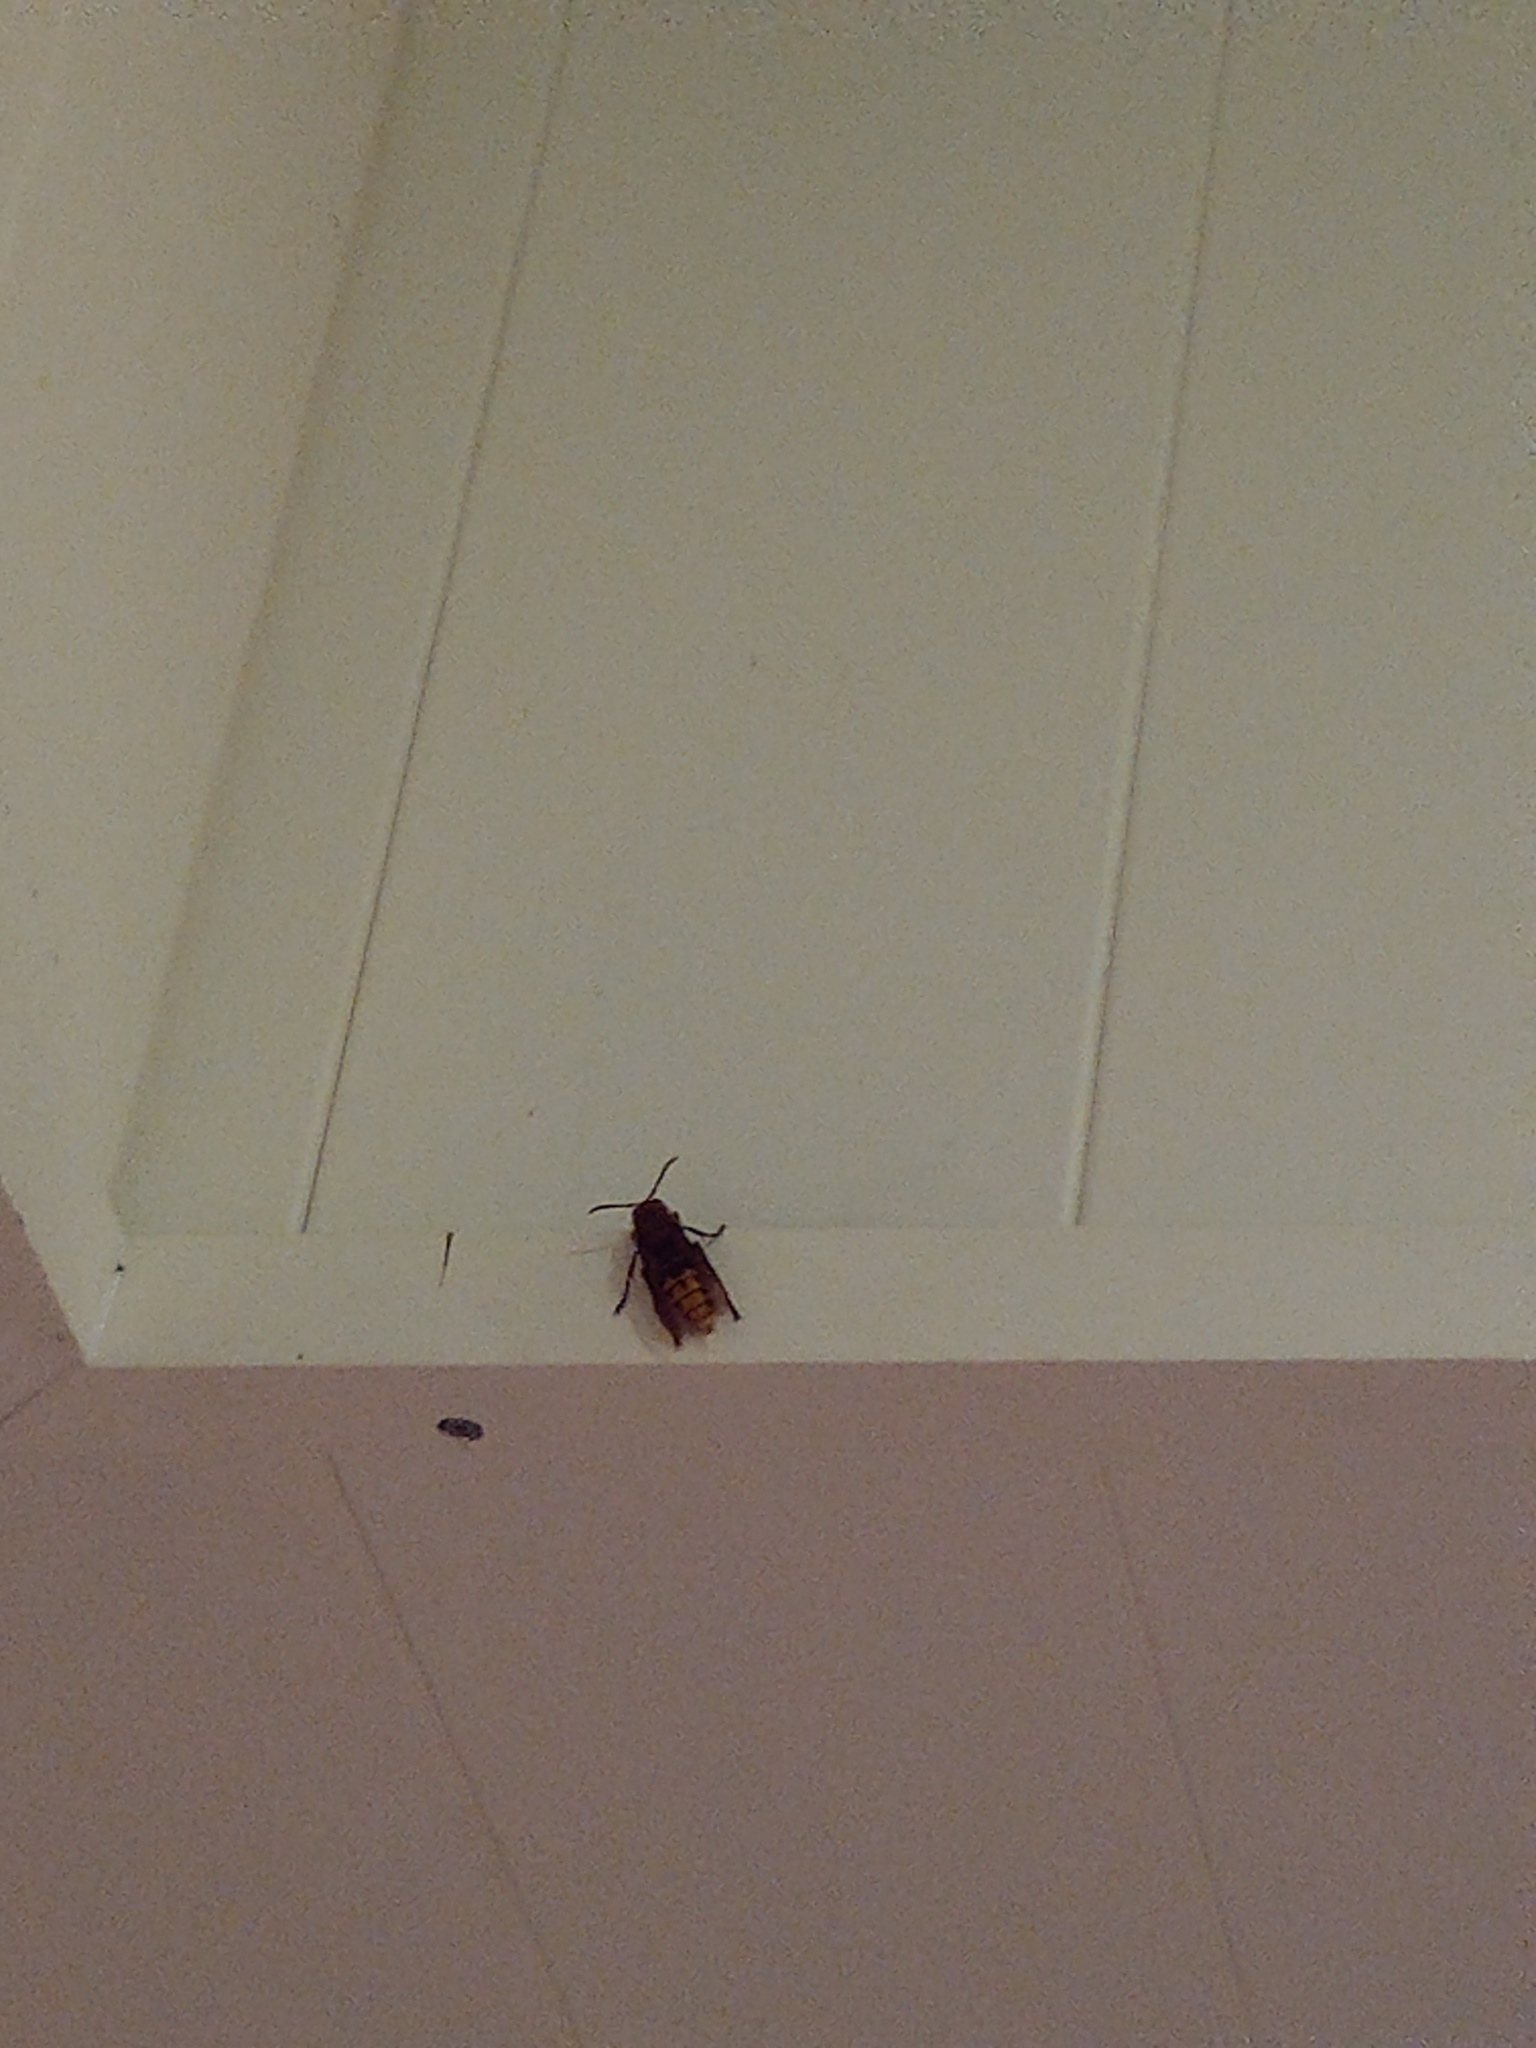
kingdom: Animalia
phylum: Arthropoda
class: Insecta
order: Hymenoptera
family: Vespidae
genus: Vespa
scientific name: Vespa crabro
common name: Hornet
